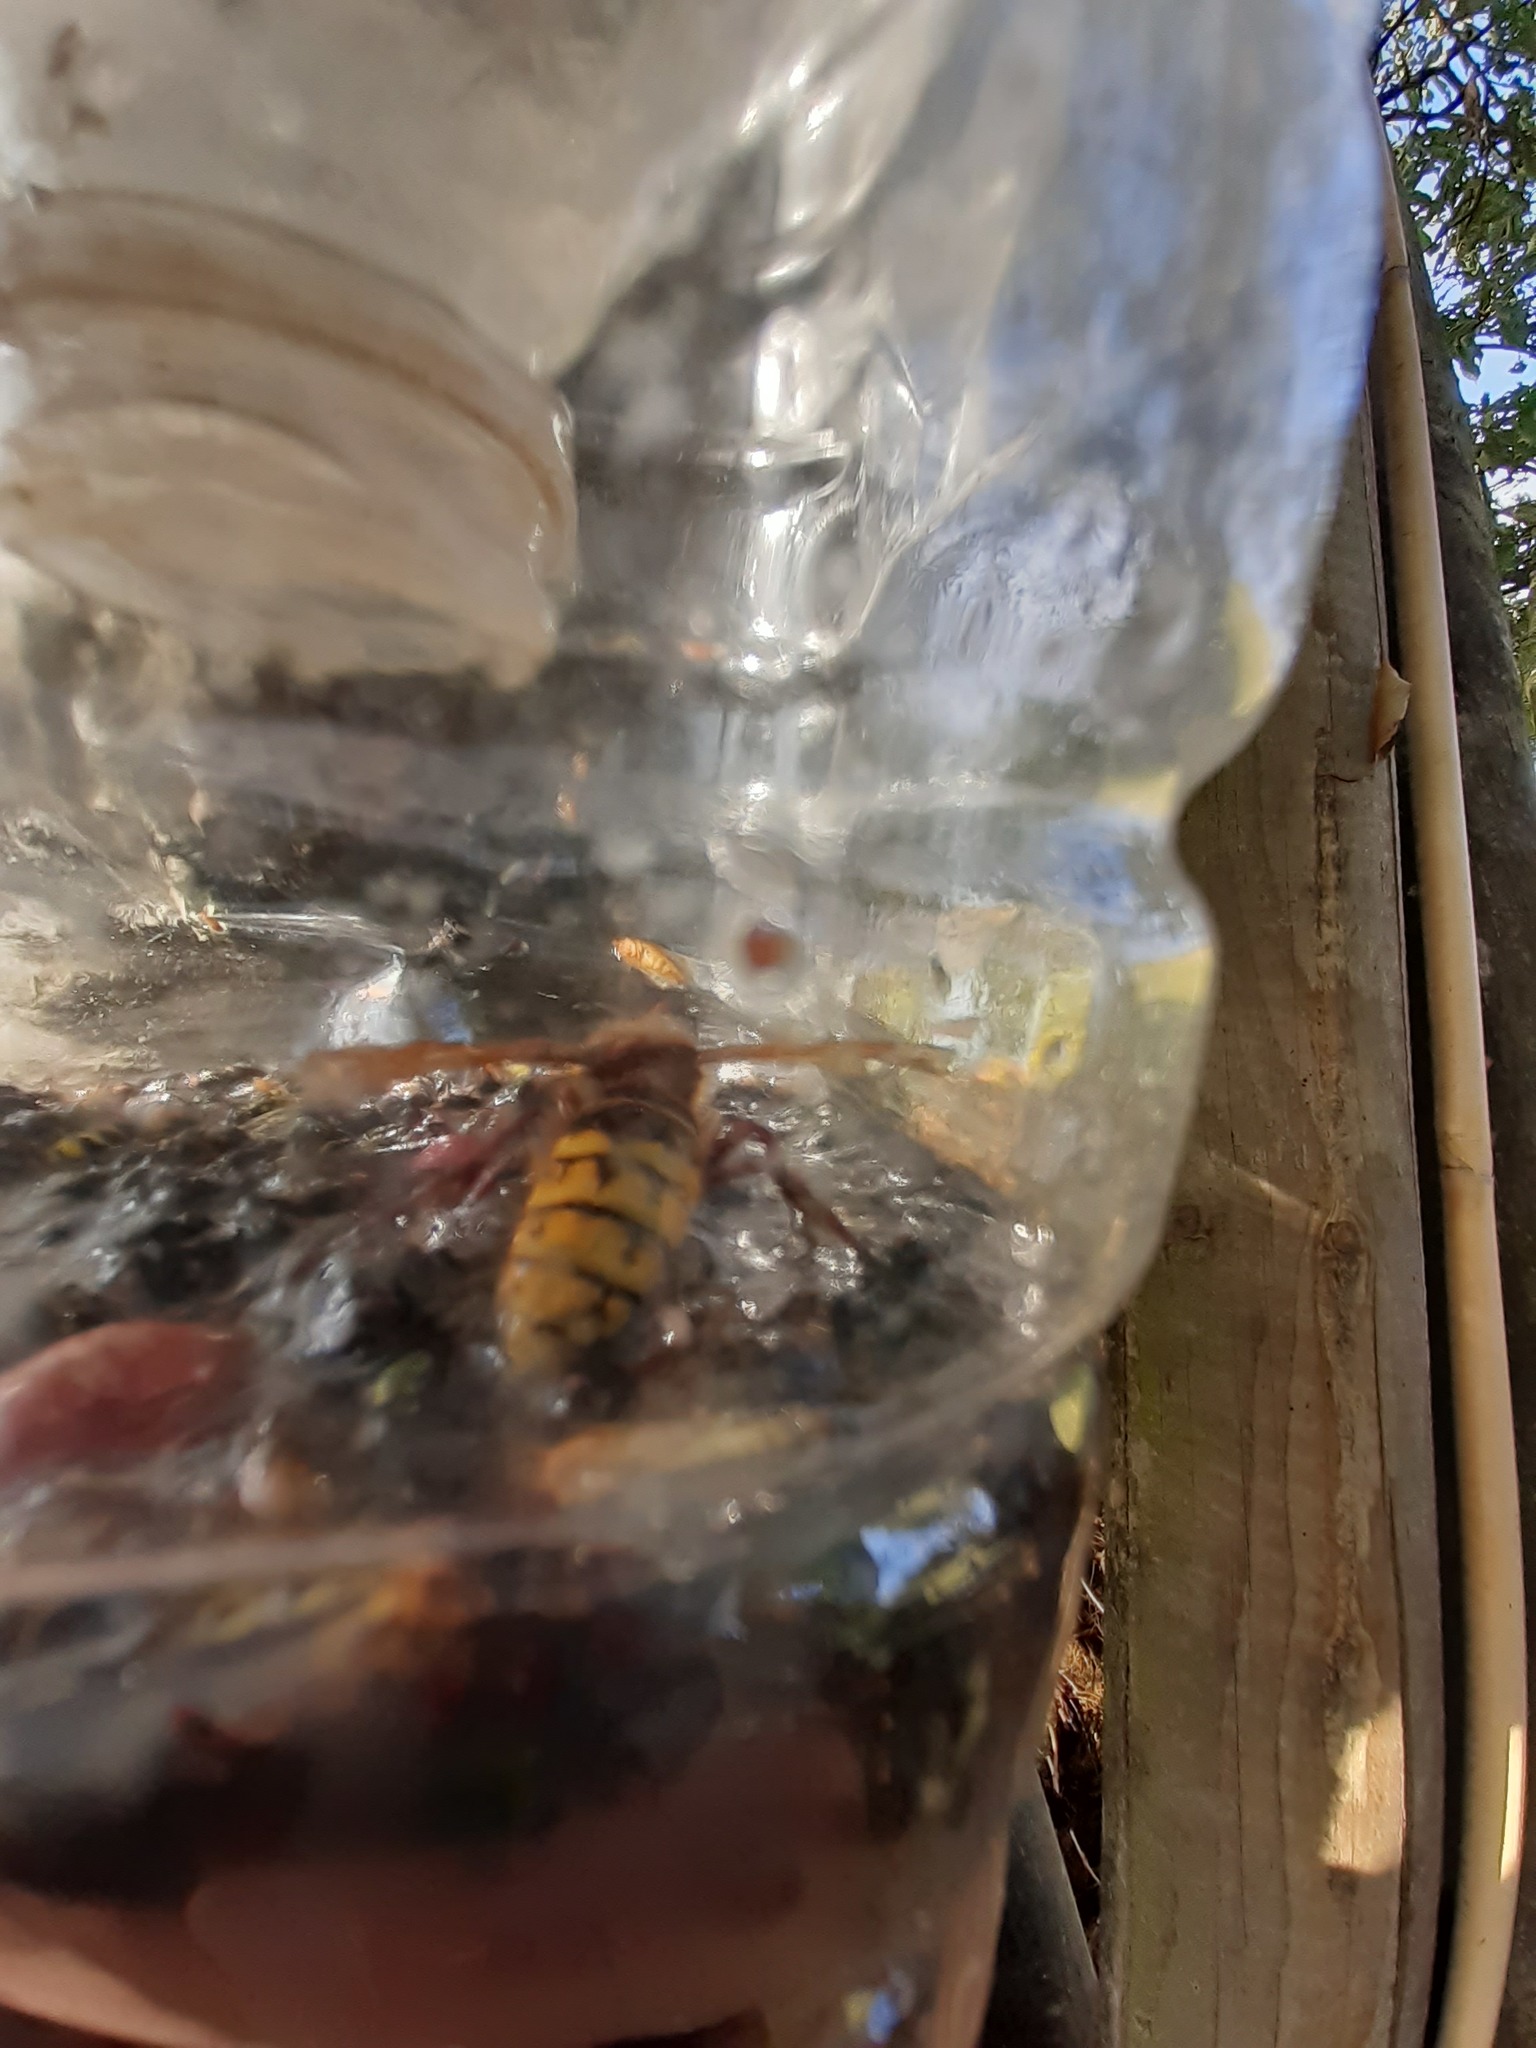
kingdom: Animalia
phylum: Arthropoda
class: Insecta
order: Hymenoptera
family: Vespidae
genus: Vespa
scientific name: Vespa crabro
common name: Hornet
